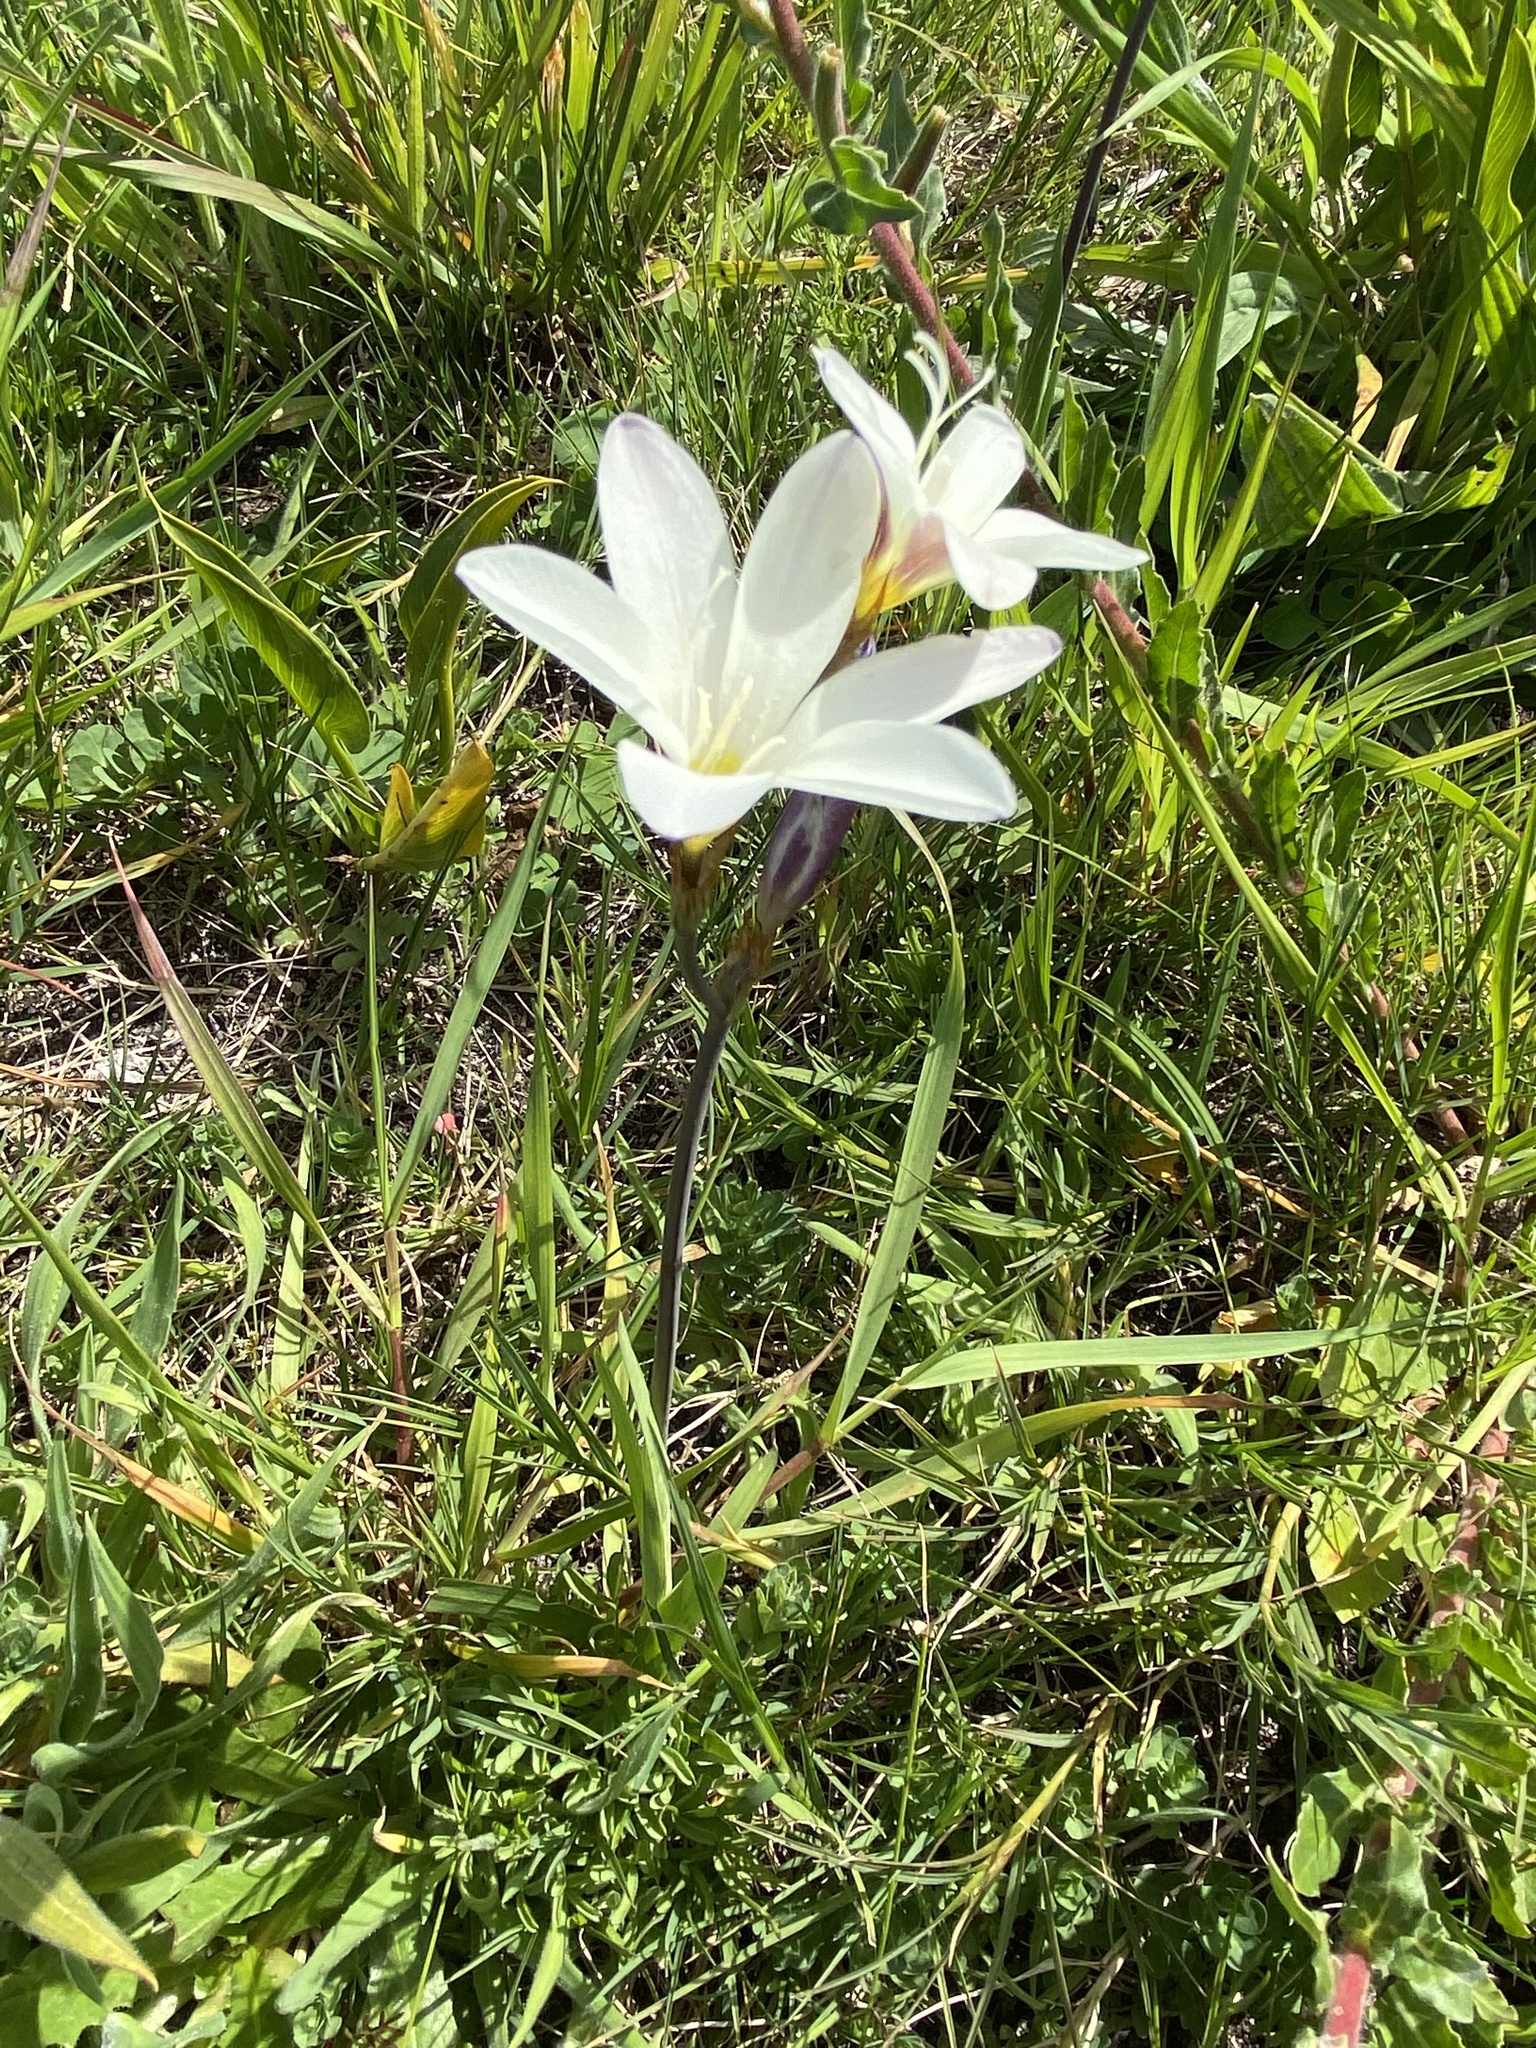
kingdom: Plantae
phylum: Tracheophyta
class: Liliopsida
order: Asparagales
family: Iridaceae
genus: Sparaxis
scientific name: Sparaxis bulbifera
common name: Harlequin-flower
